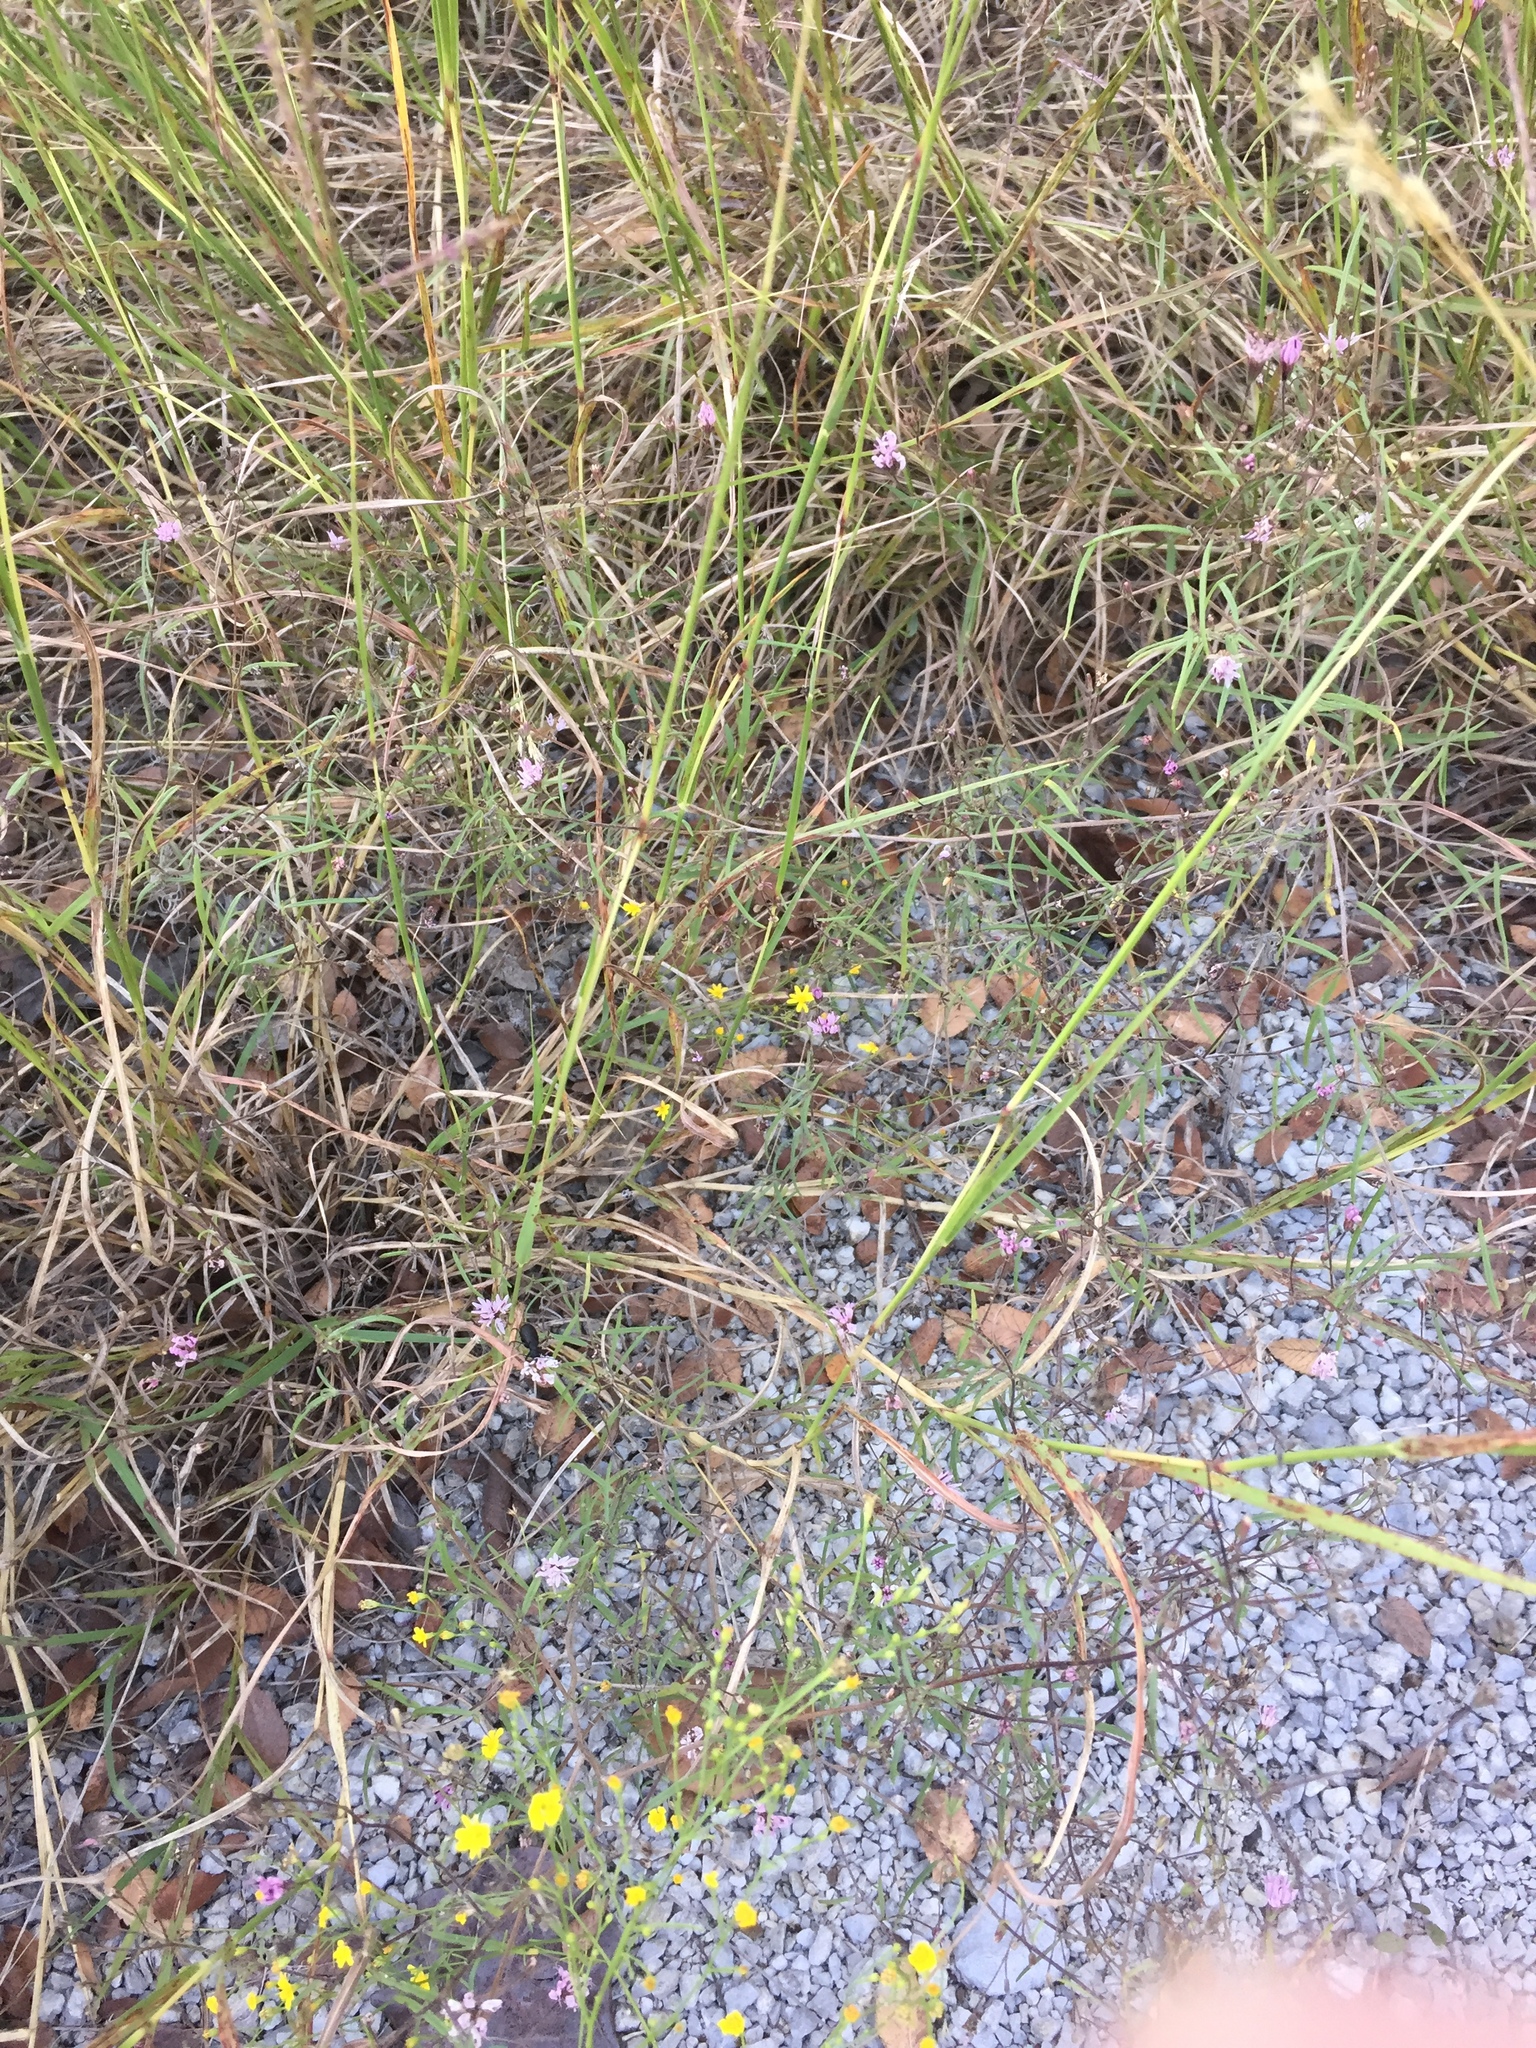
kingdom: Plantae
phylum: Tracheophyta
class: Magnoliopsida
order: Asterales
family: Asteraceae
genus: Palafoxia
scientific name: Palafoxia callosa
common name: Small palafox
